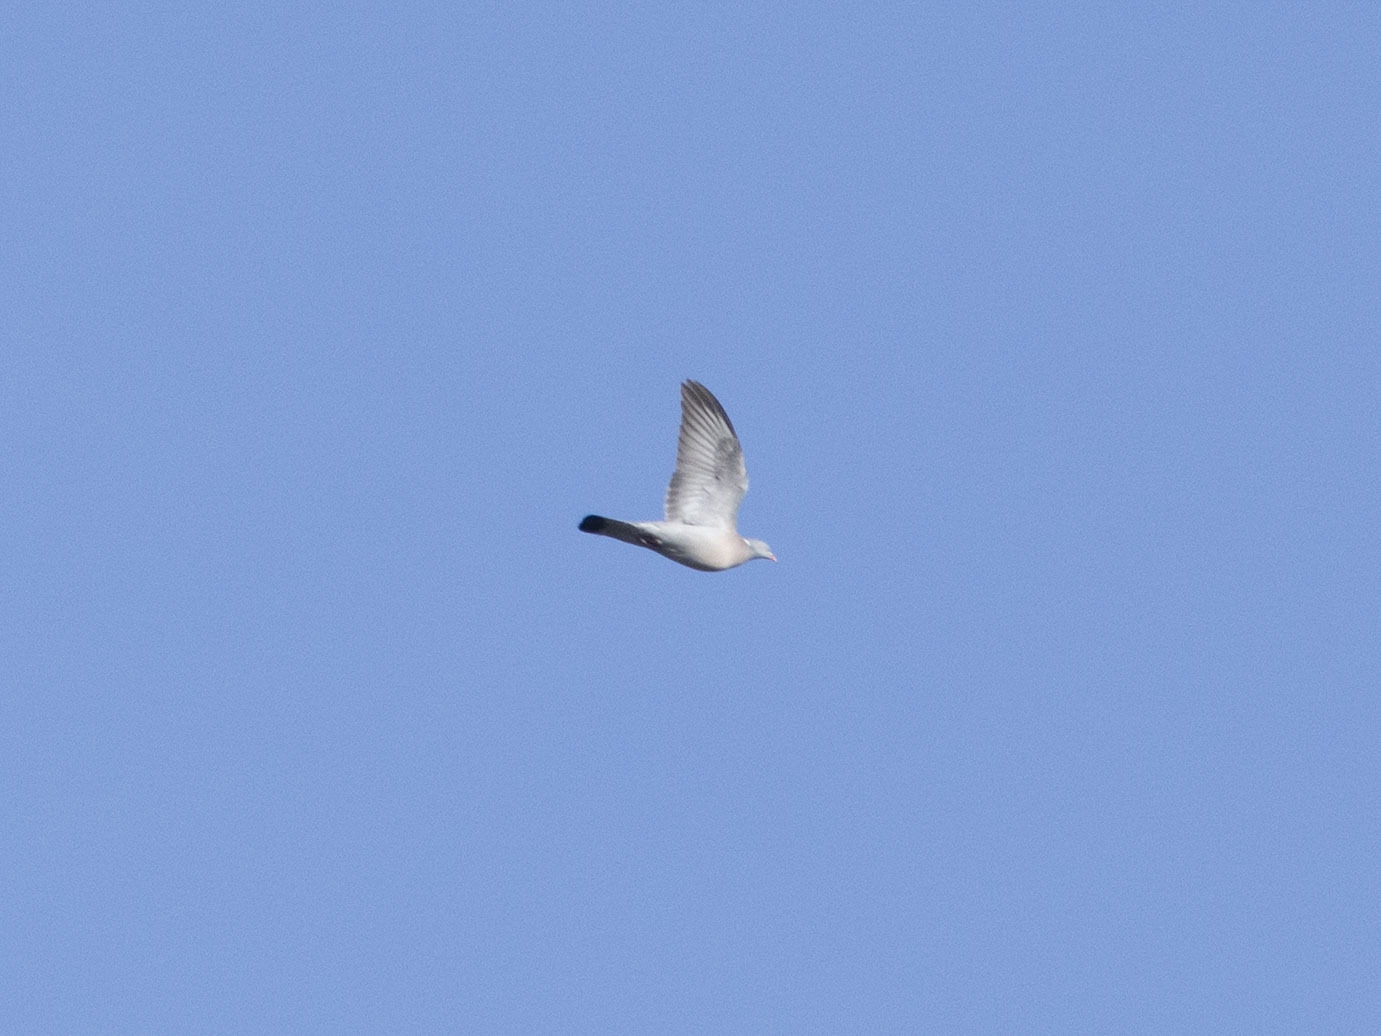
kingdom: Animalia
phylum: Chordata
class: Aves
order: Columbiformes
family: Columbidae
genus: Columba
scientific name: Columba palumbus
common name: Common wood pigeon
